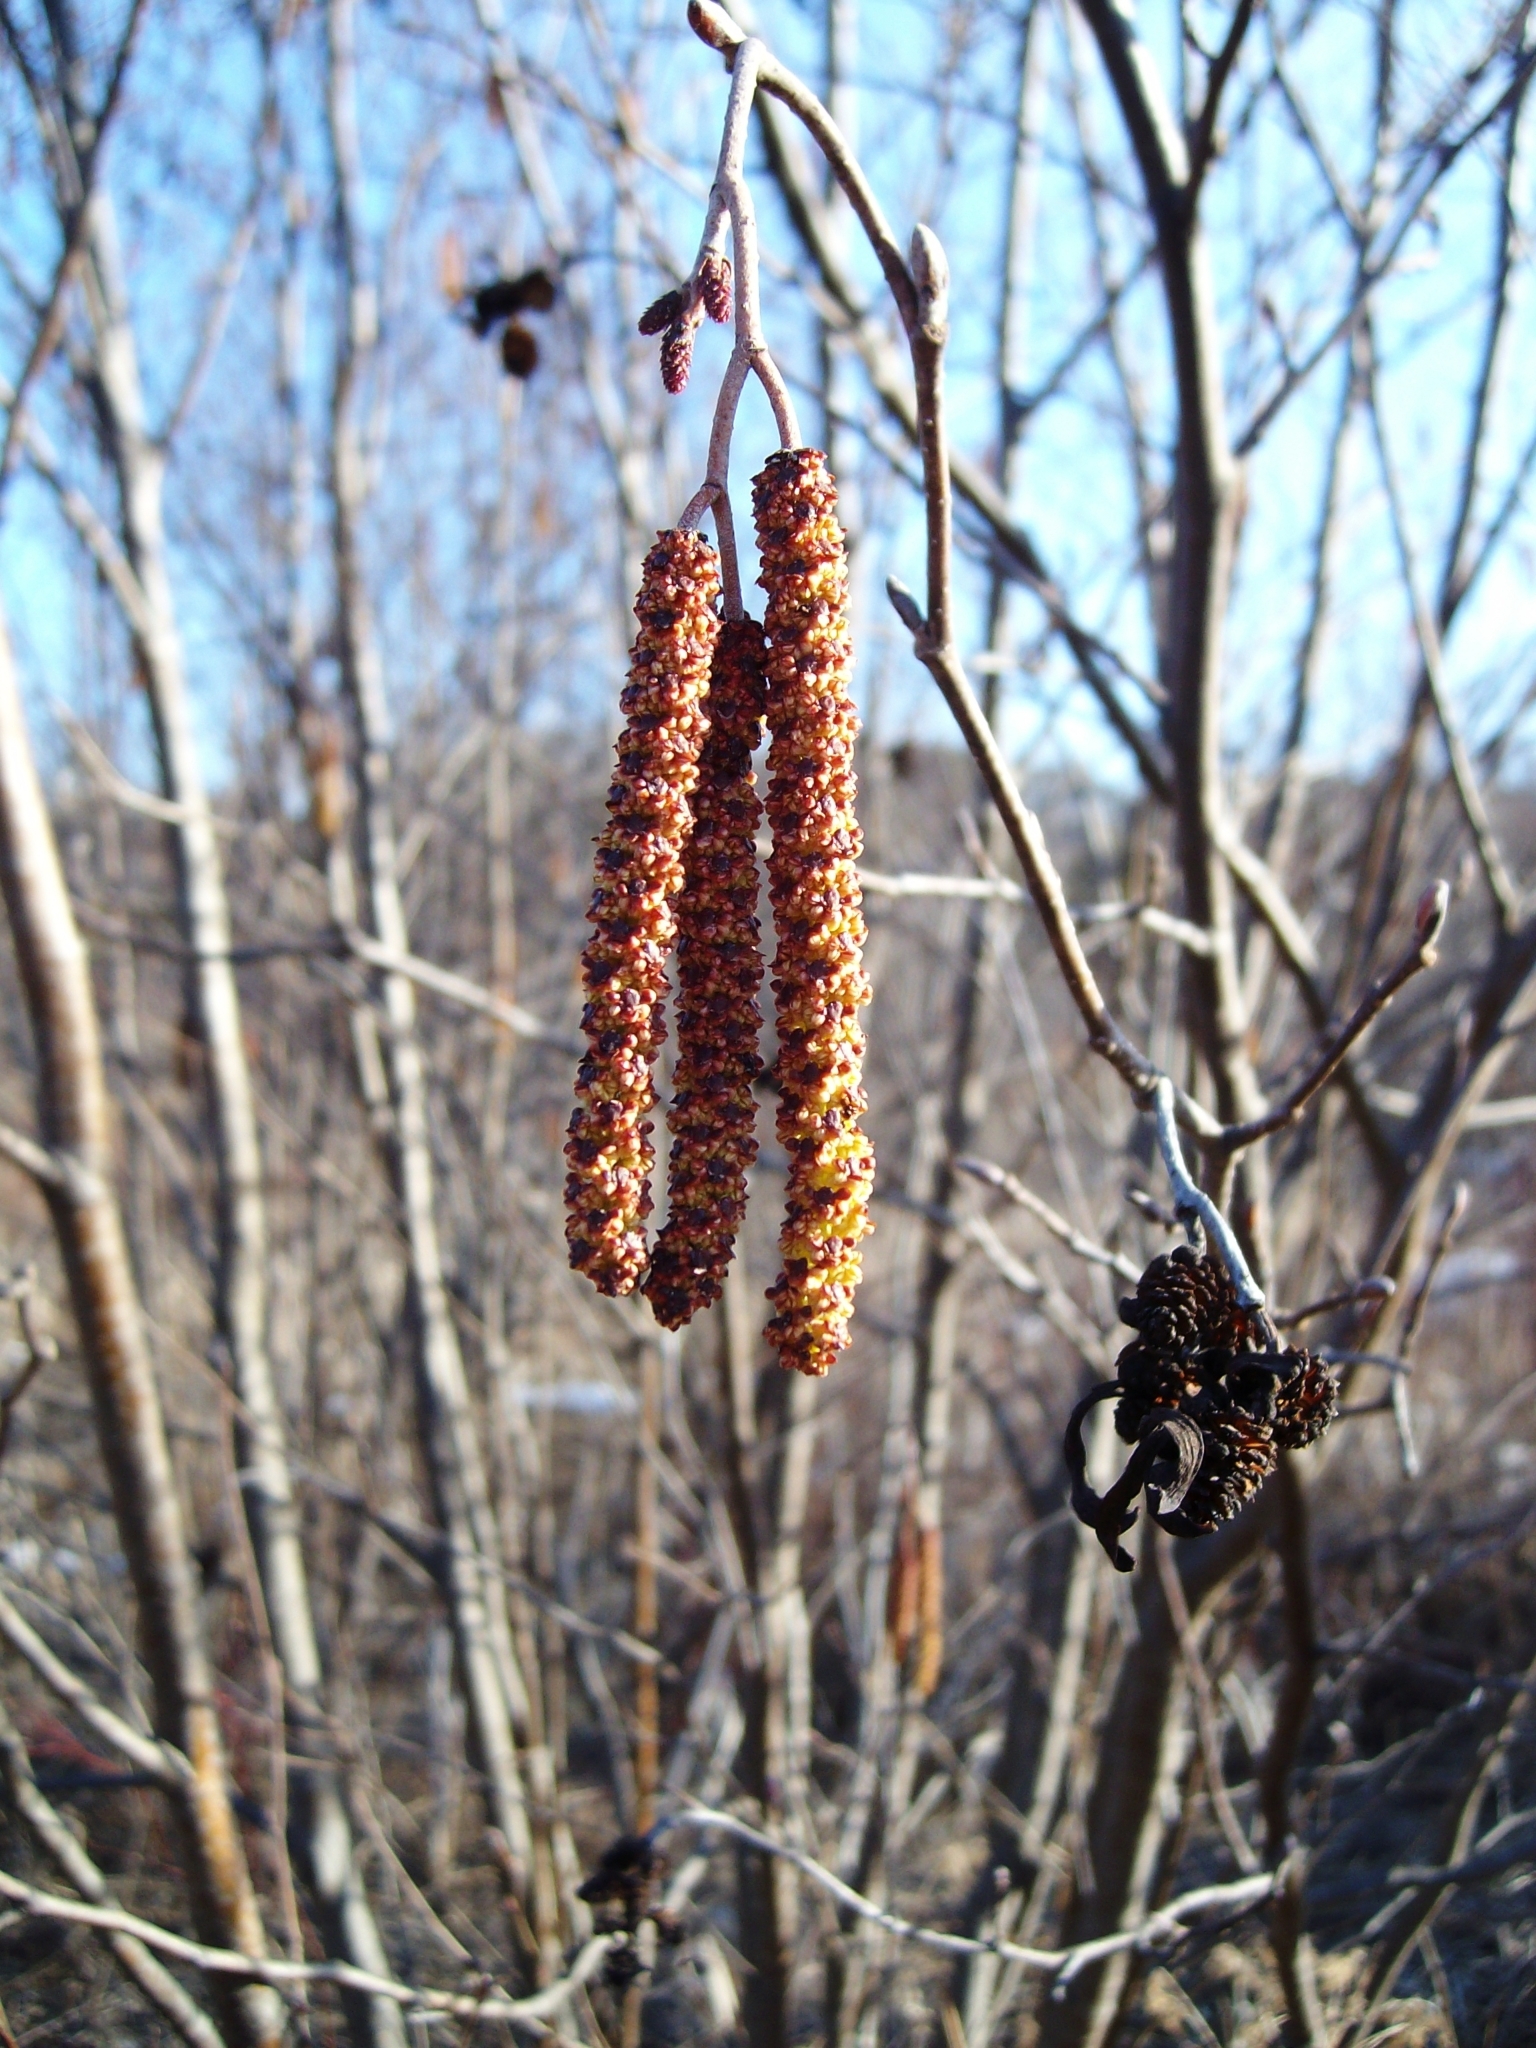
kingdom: Plantae
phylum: Tracheophyta
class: Magnoliopsida
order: Fagales
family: Betulaceae
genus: Alnus
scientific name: Alnus incana
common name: Grey alder
